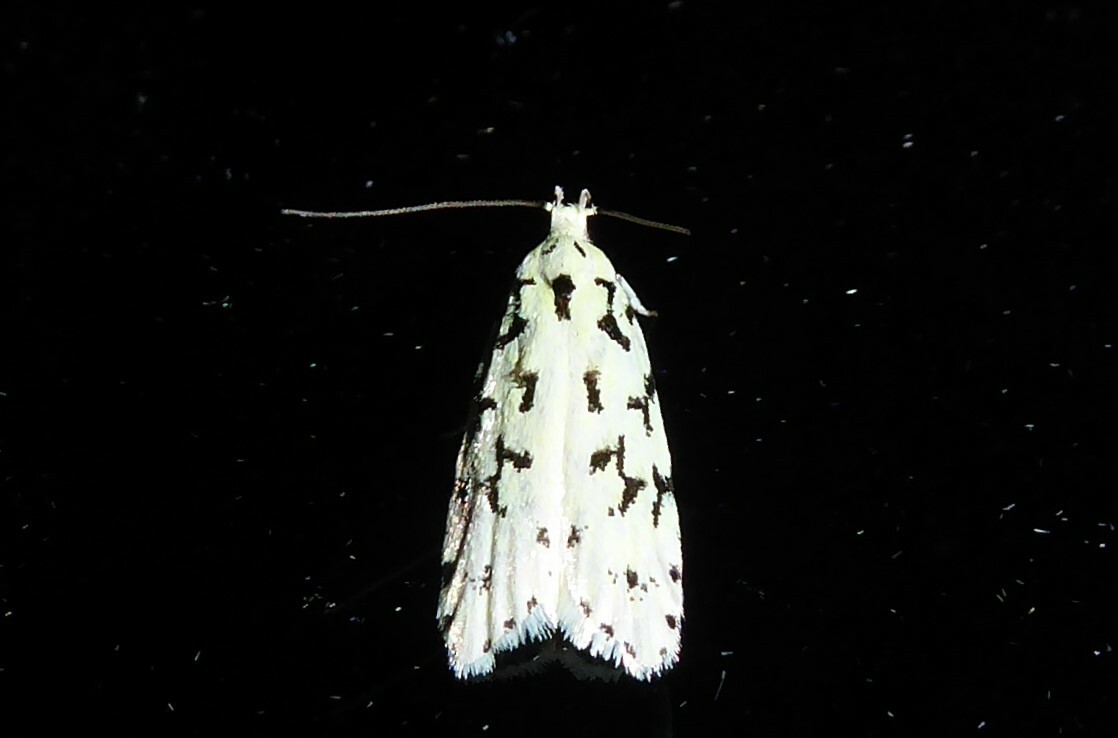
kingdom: Animalia
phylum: Arthropoda
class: Insecta
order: Lepidoptera
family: Oecophoridae
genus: Izatha
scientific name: Izatha huttoni
